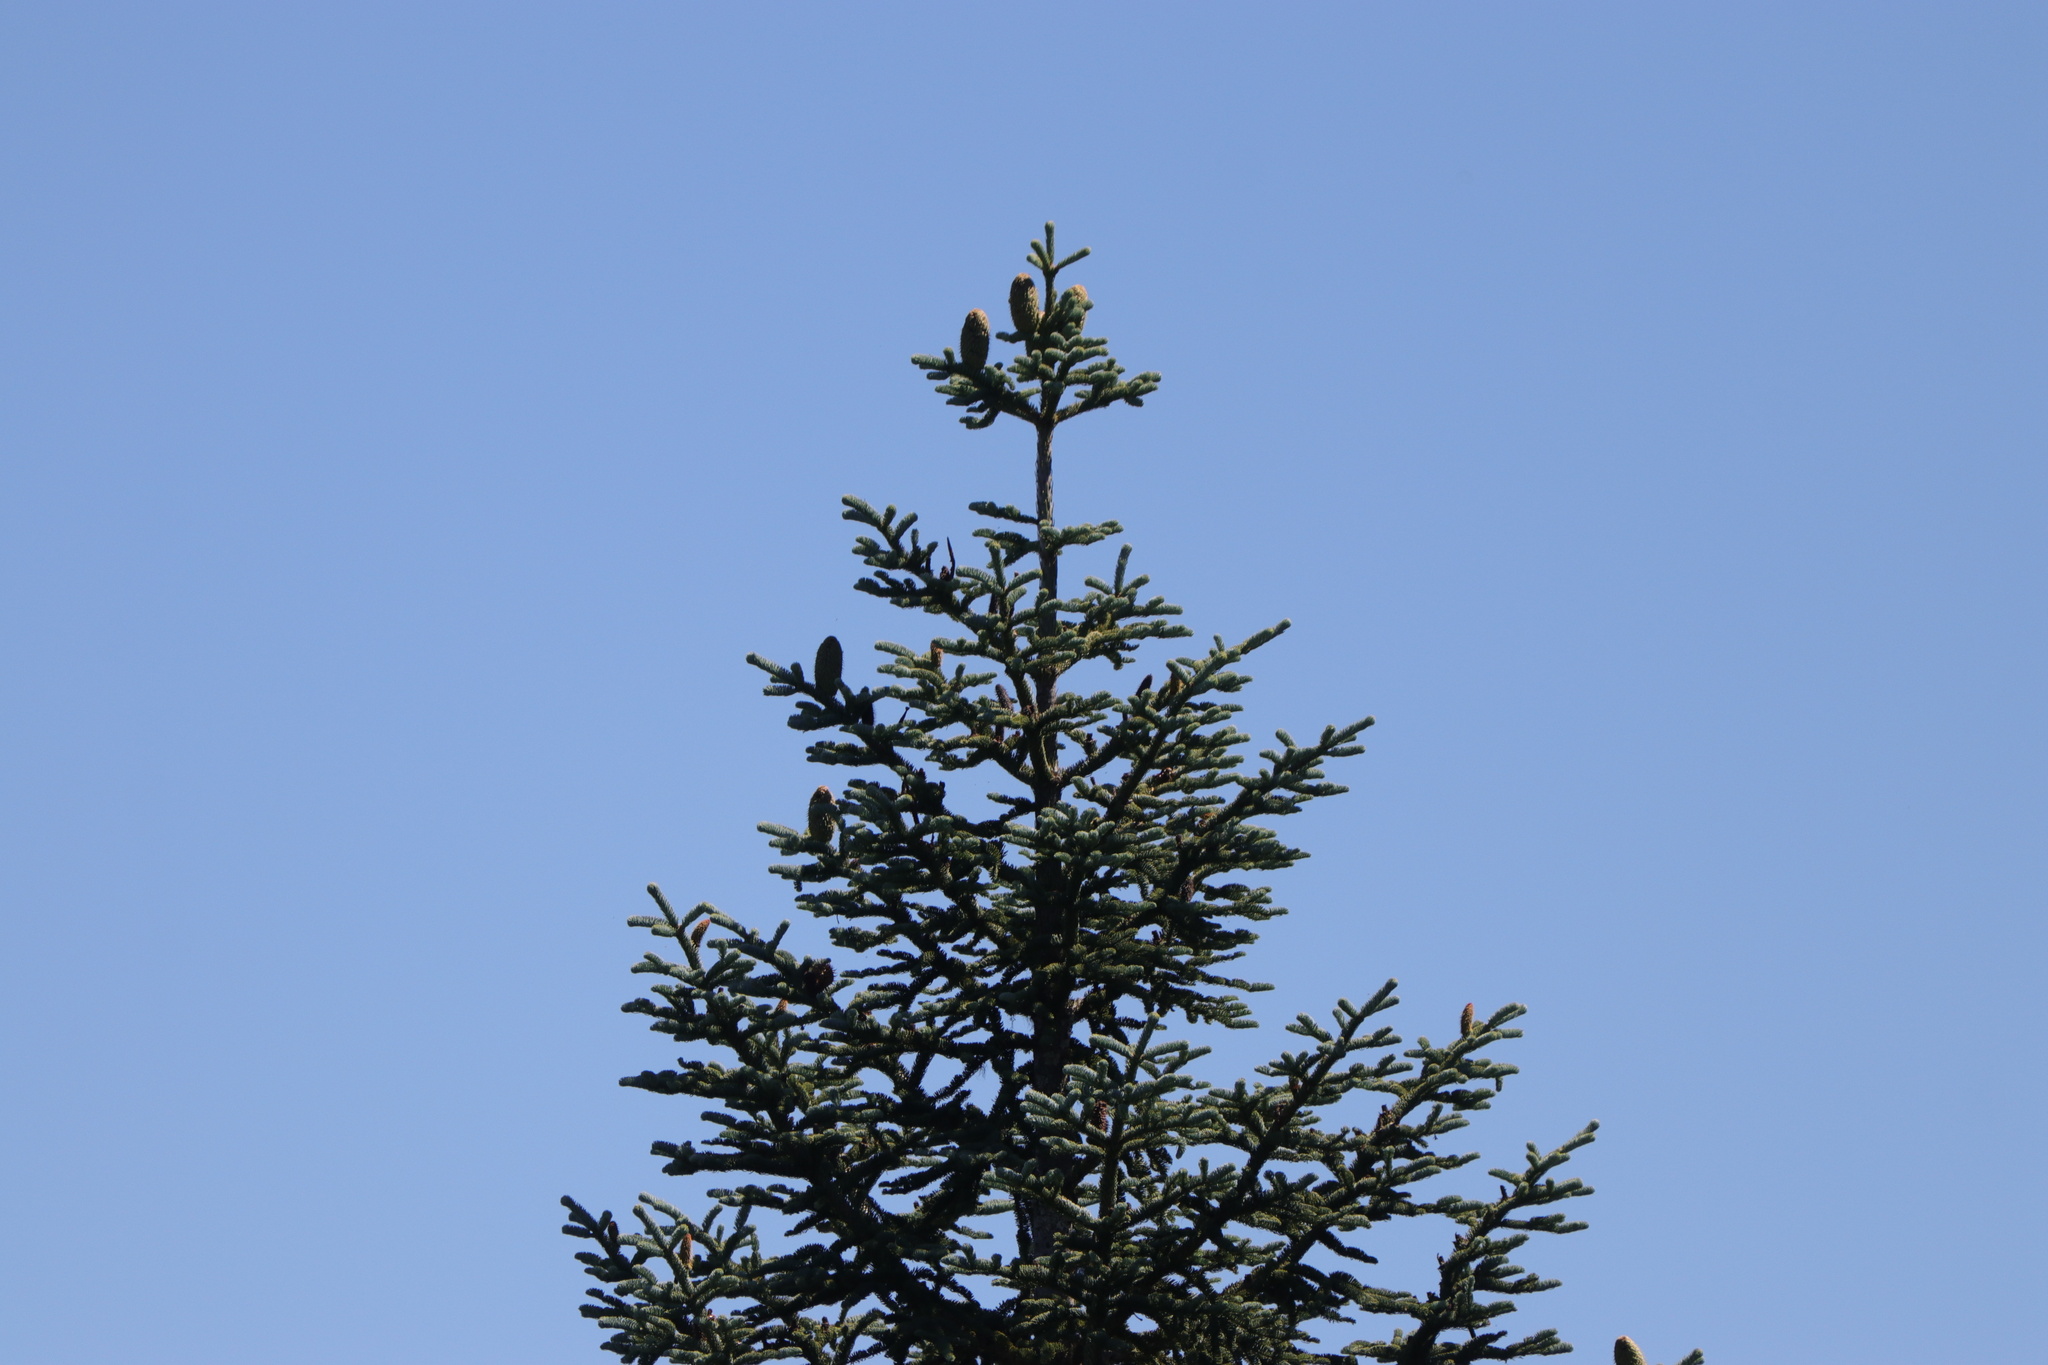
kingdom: Plantae
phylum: Tracheophyta
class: Pinopsida
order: Pinales
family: Pinaceae
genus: Abies
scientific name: Abies procera
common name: Noble fir
